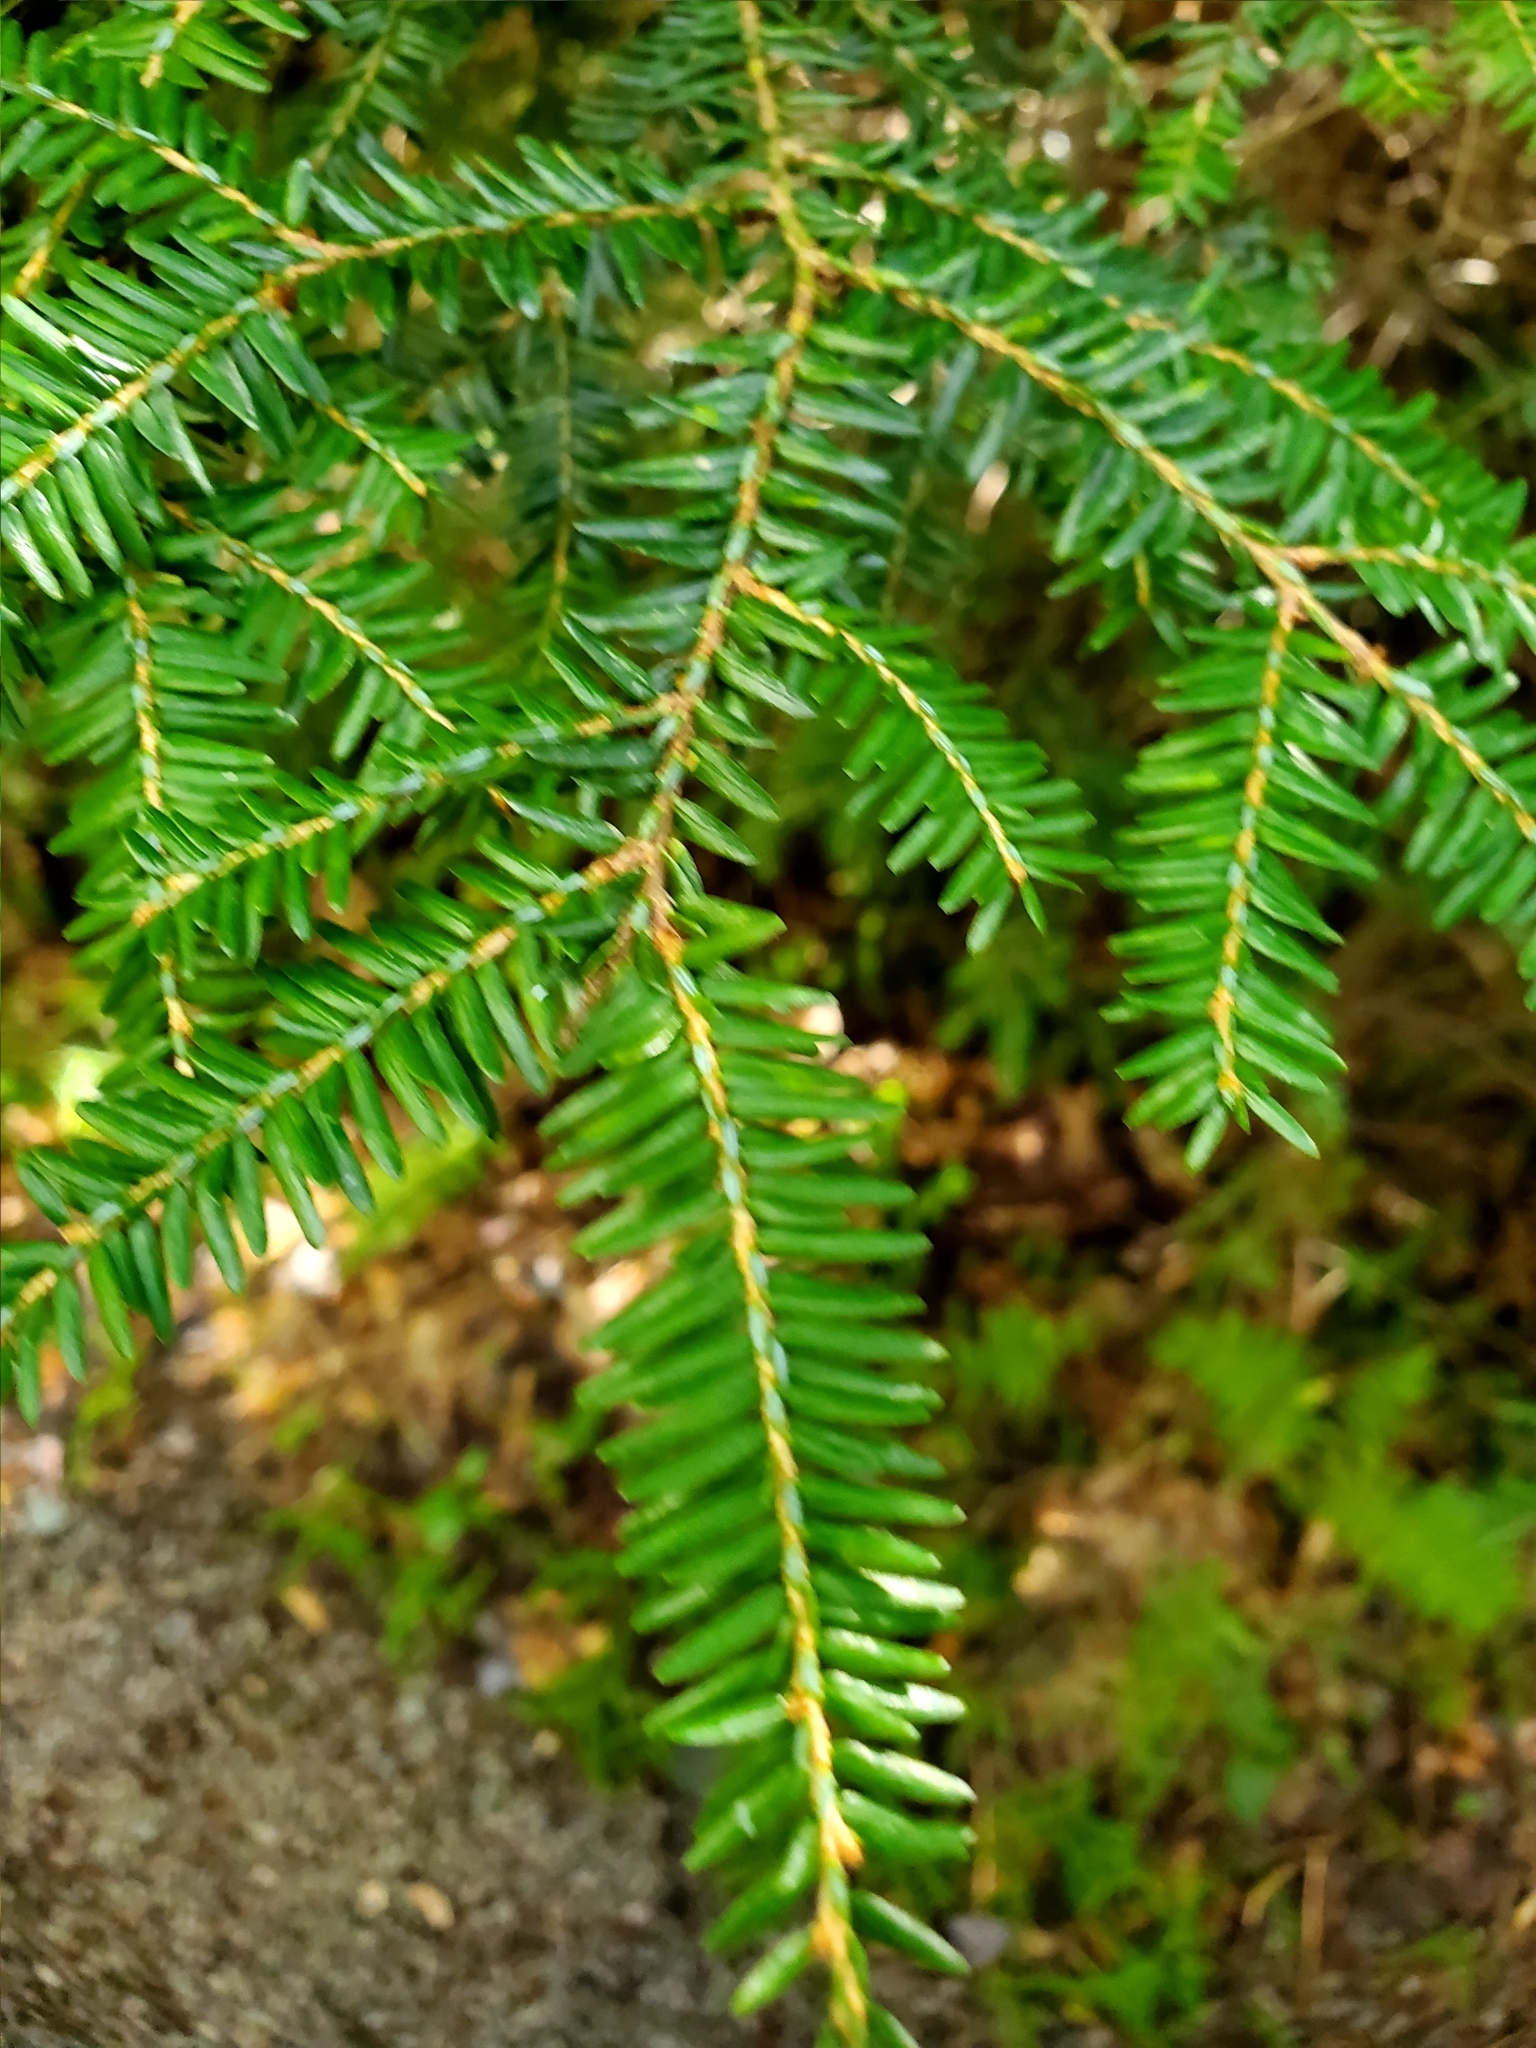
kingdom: Plantae
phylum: Tracheophyta
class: Pinopsida
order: Pinales
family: Pinaceae
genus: Tsuga
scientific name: Tsuga canadensis
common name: Eastern hemlock
